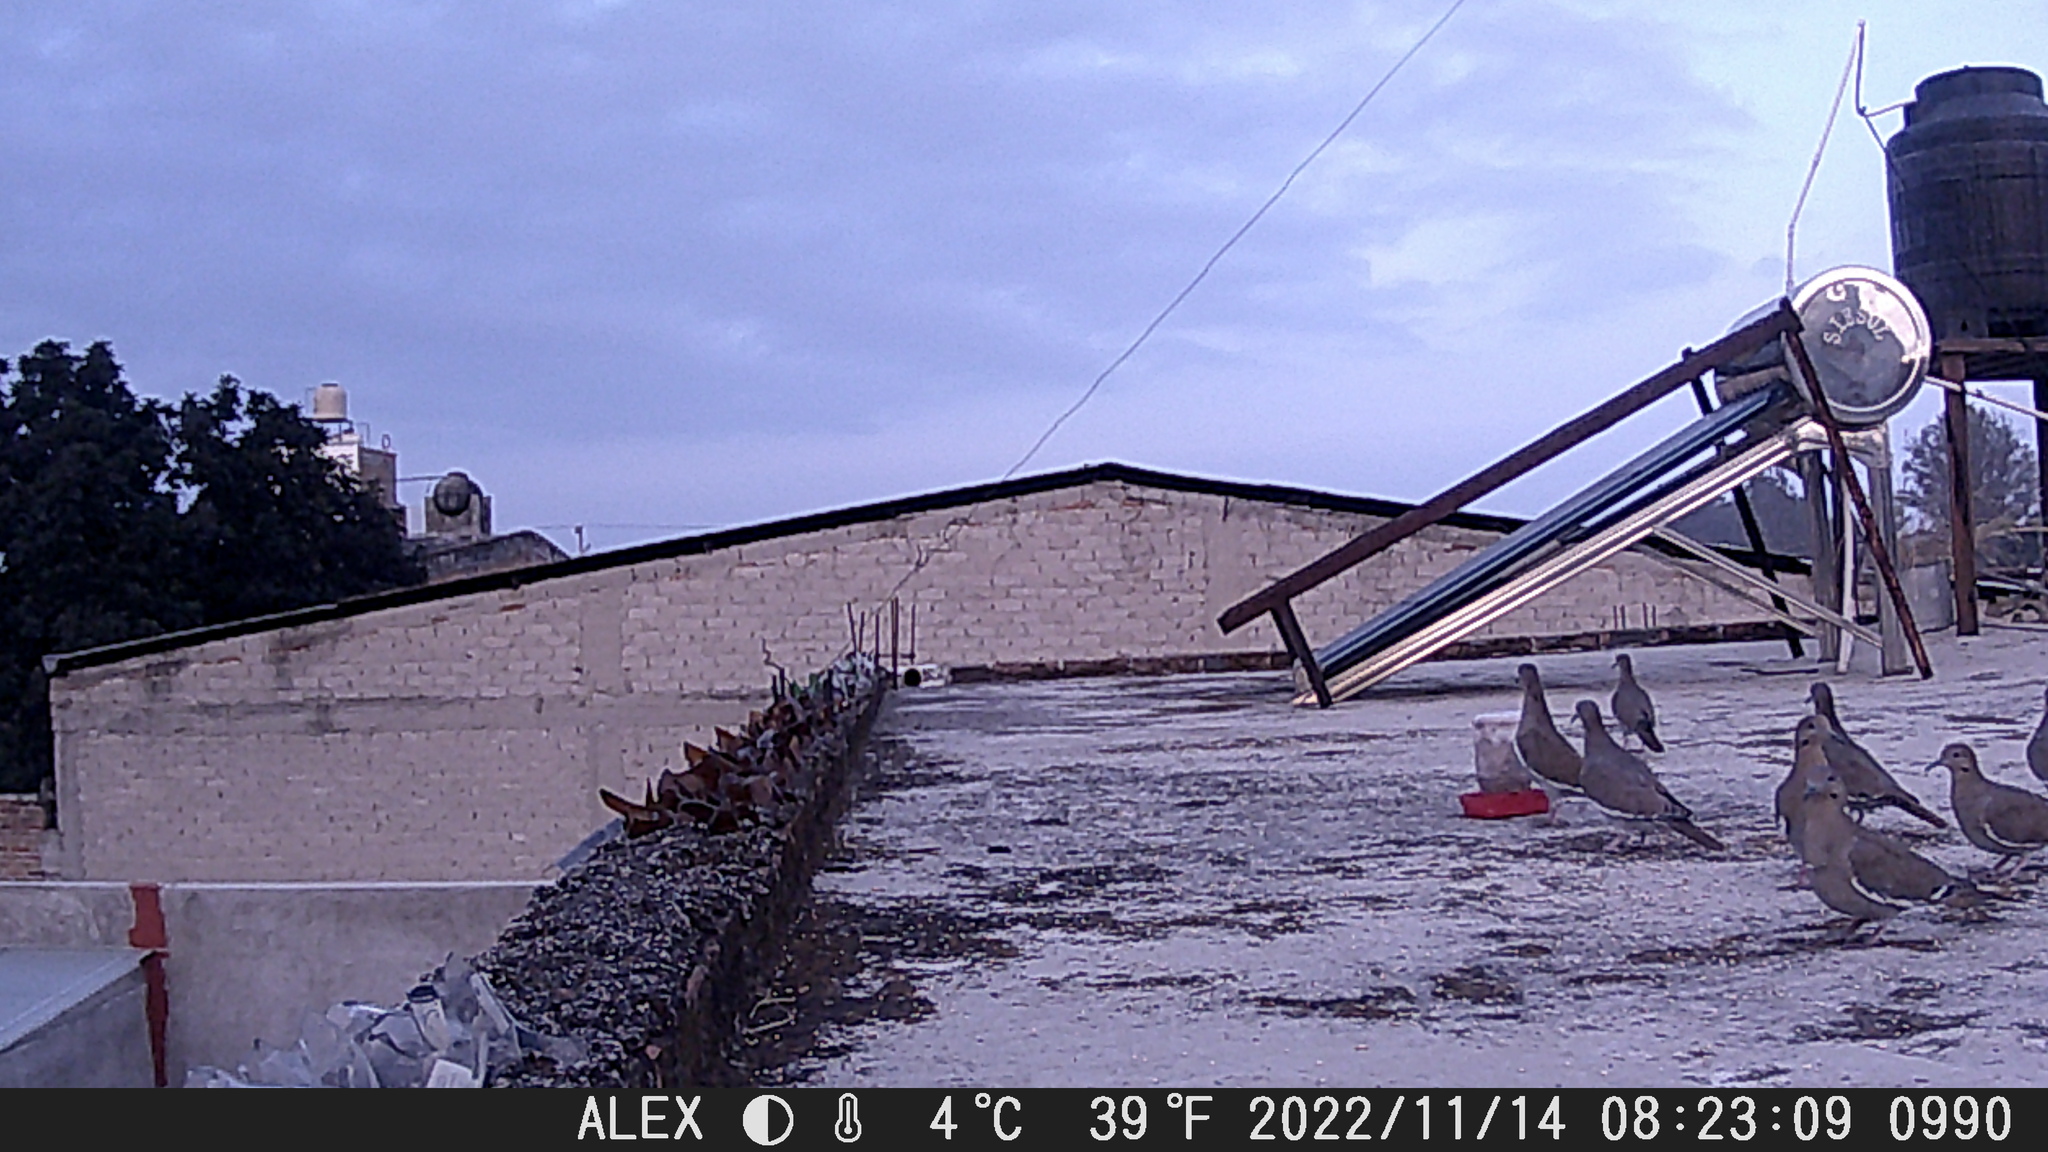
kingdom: Animalia
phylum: Chordata
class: Aves
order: Columbiformes
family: Columbidae
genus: Zenaida
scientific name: Zenaida asiatica
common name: White-winged dove
